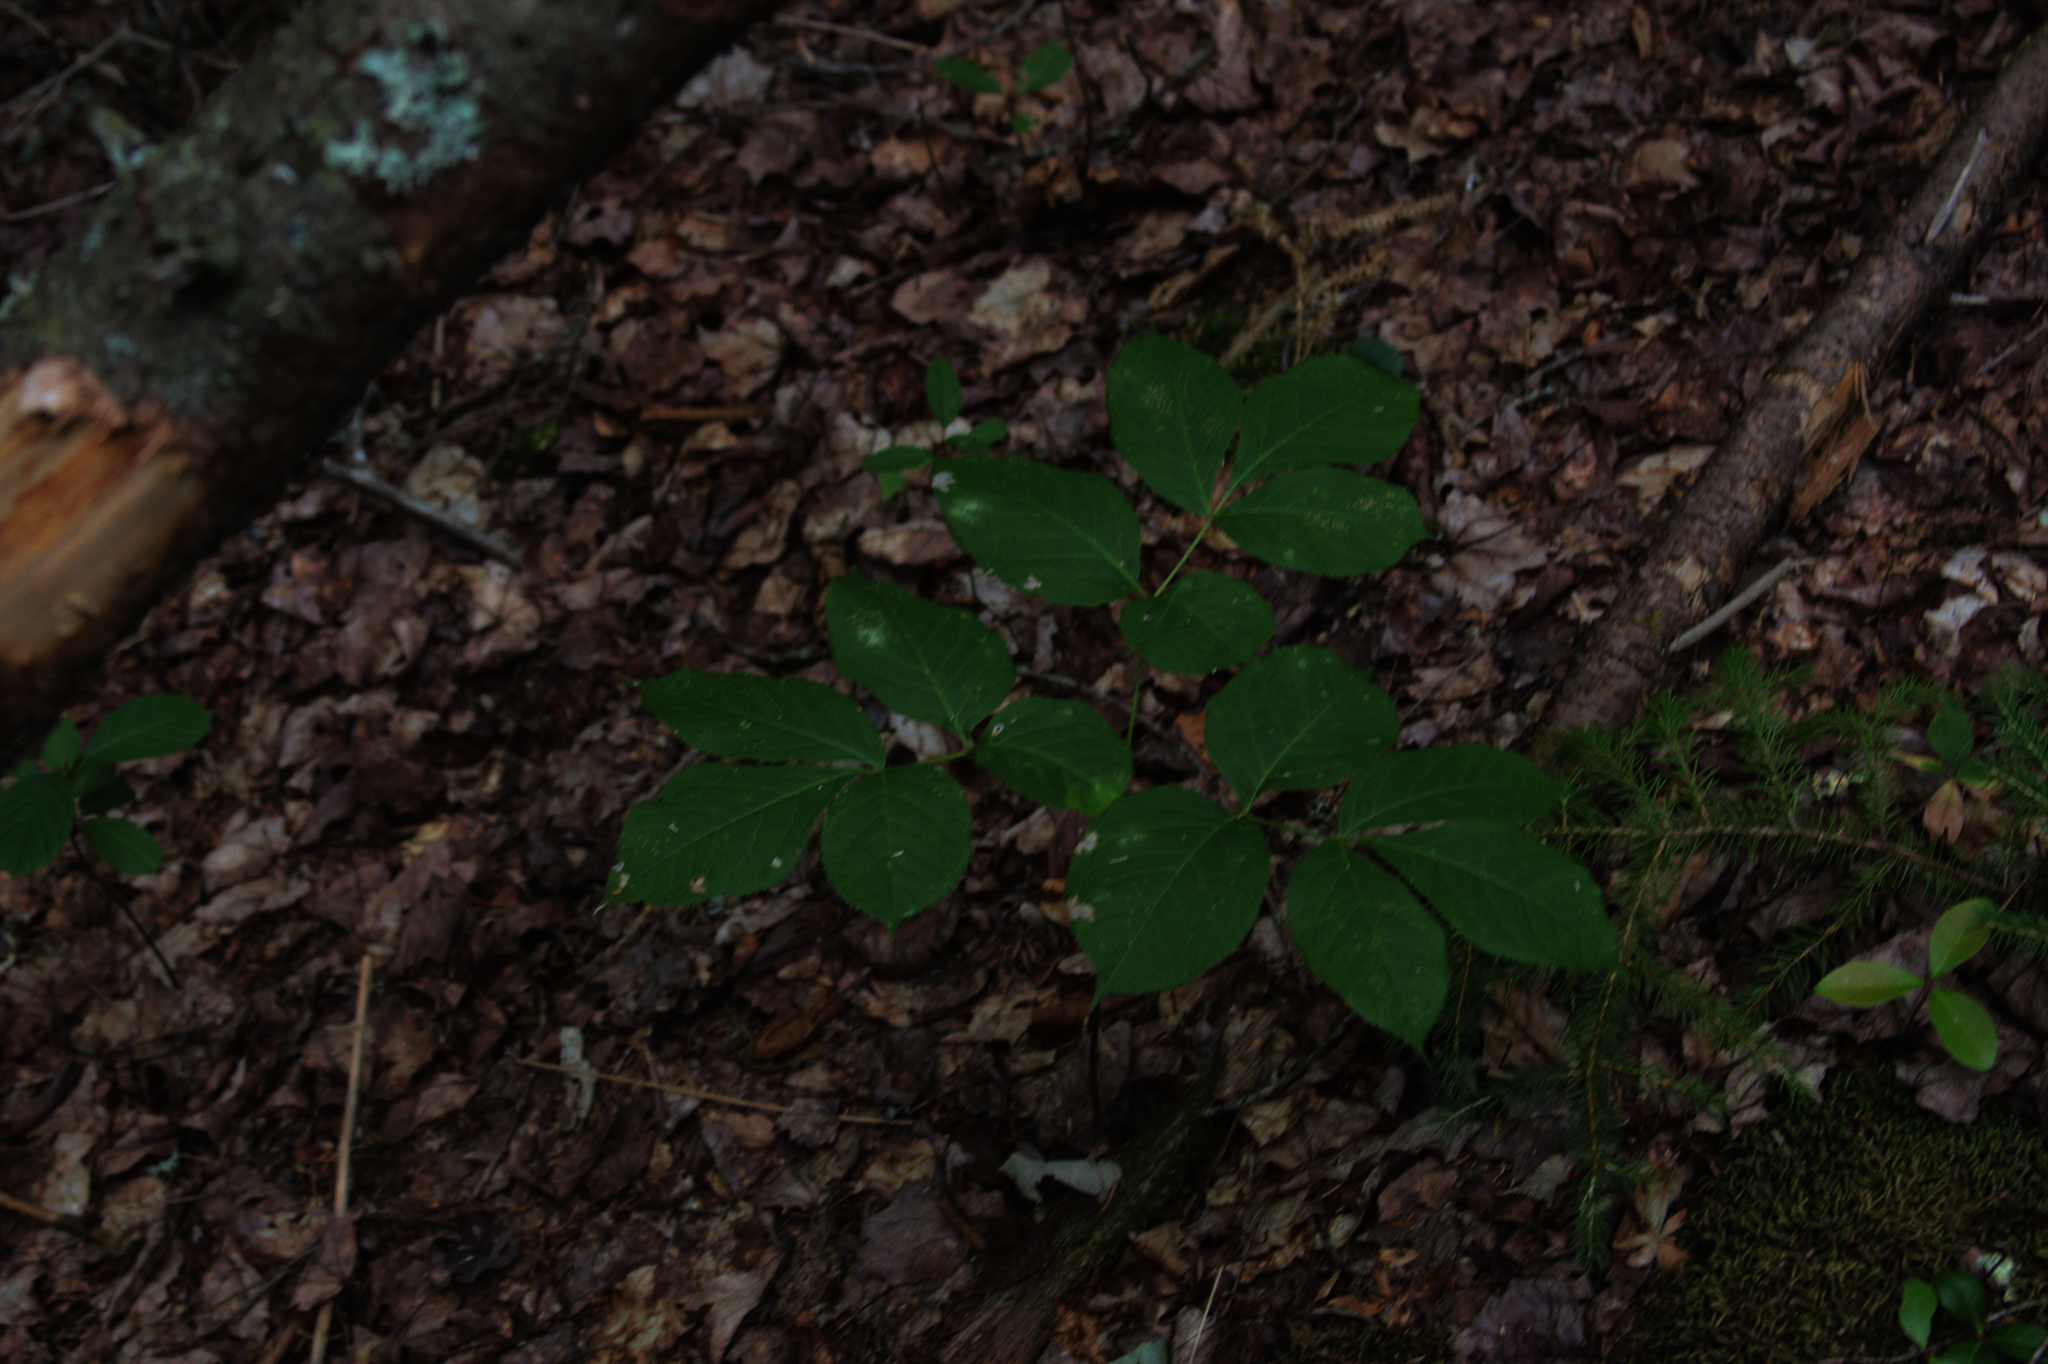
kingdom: Plantae
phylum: Tracheophyta
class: Magnoliopsida
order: Apiales
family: Araliaceae
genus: Aralia
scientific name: Aralia nudicaulis
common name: Wild sarsaparilla
